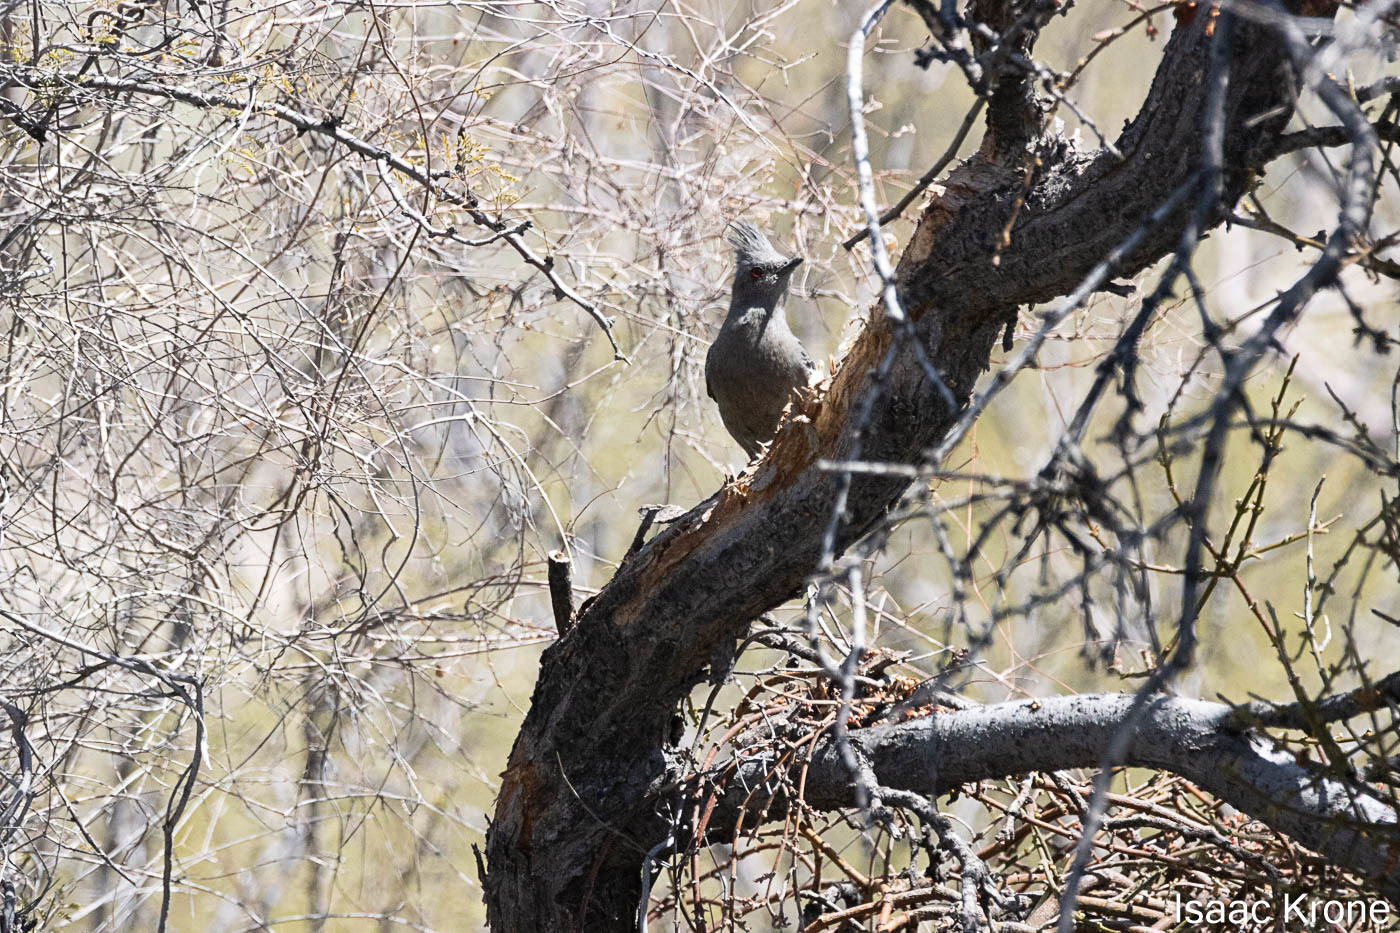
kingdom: Animalia
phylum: Chordata
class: Aves
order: Passeriformes
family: Ptilogonatidae
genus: Phainopepla
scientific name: Phainopepla nitens
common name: Phainopepla
